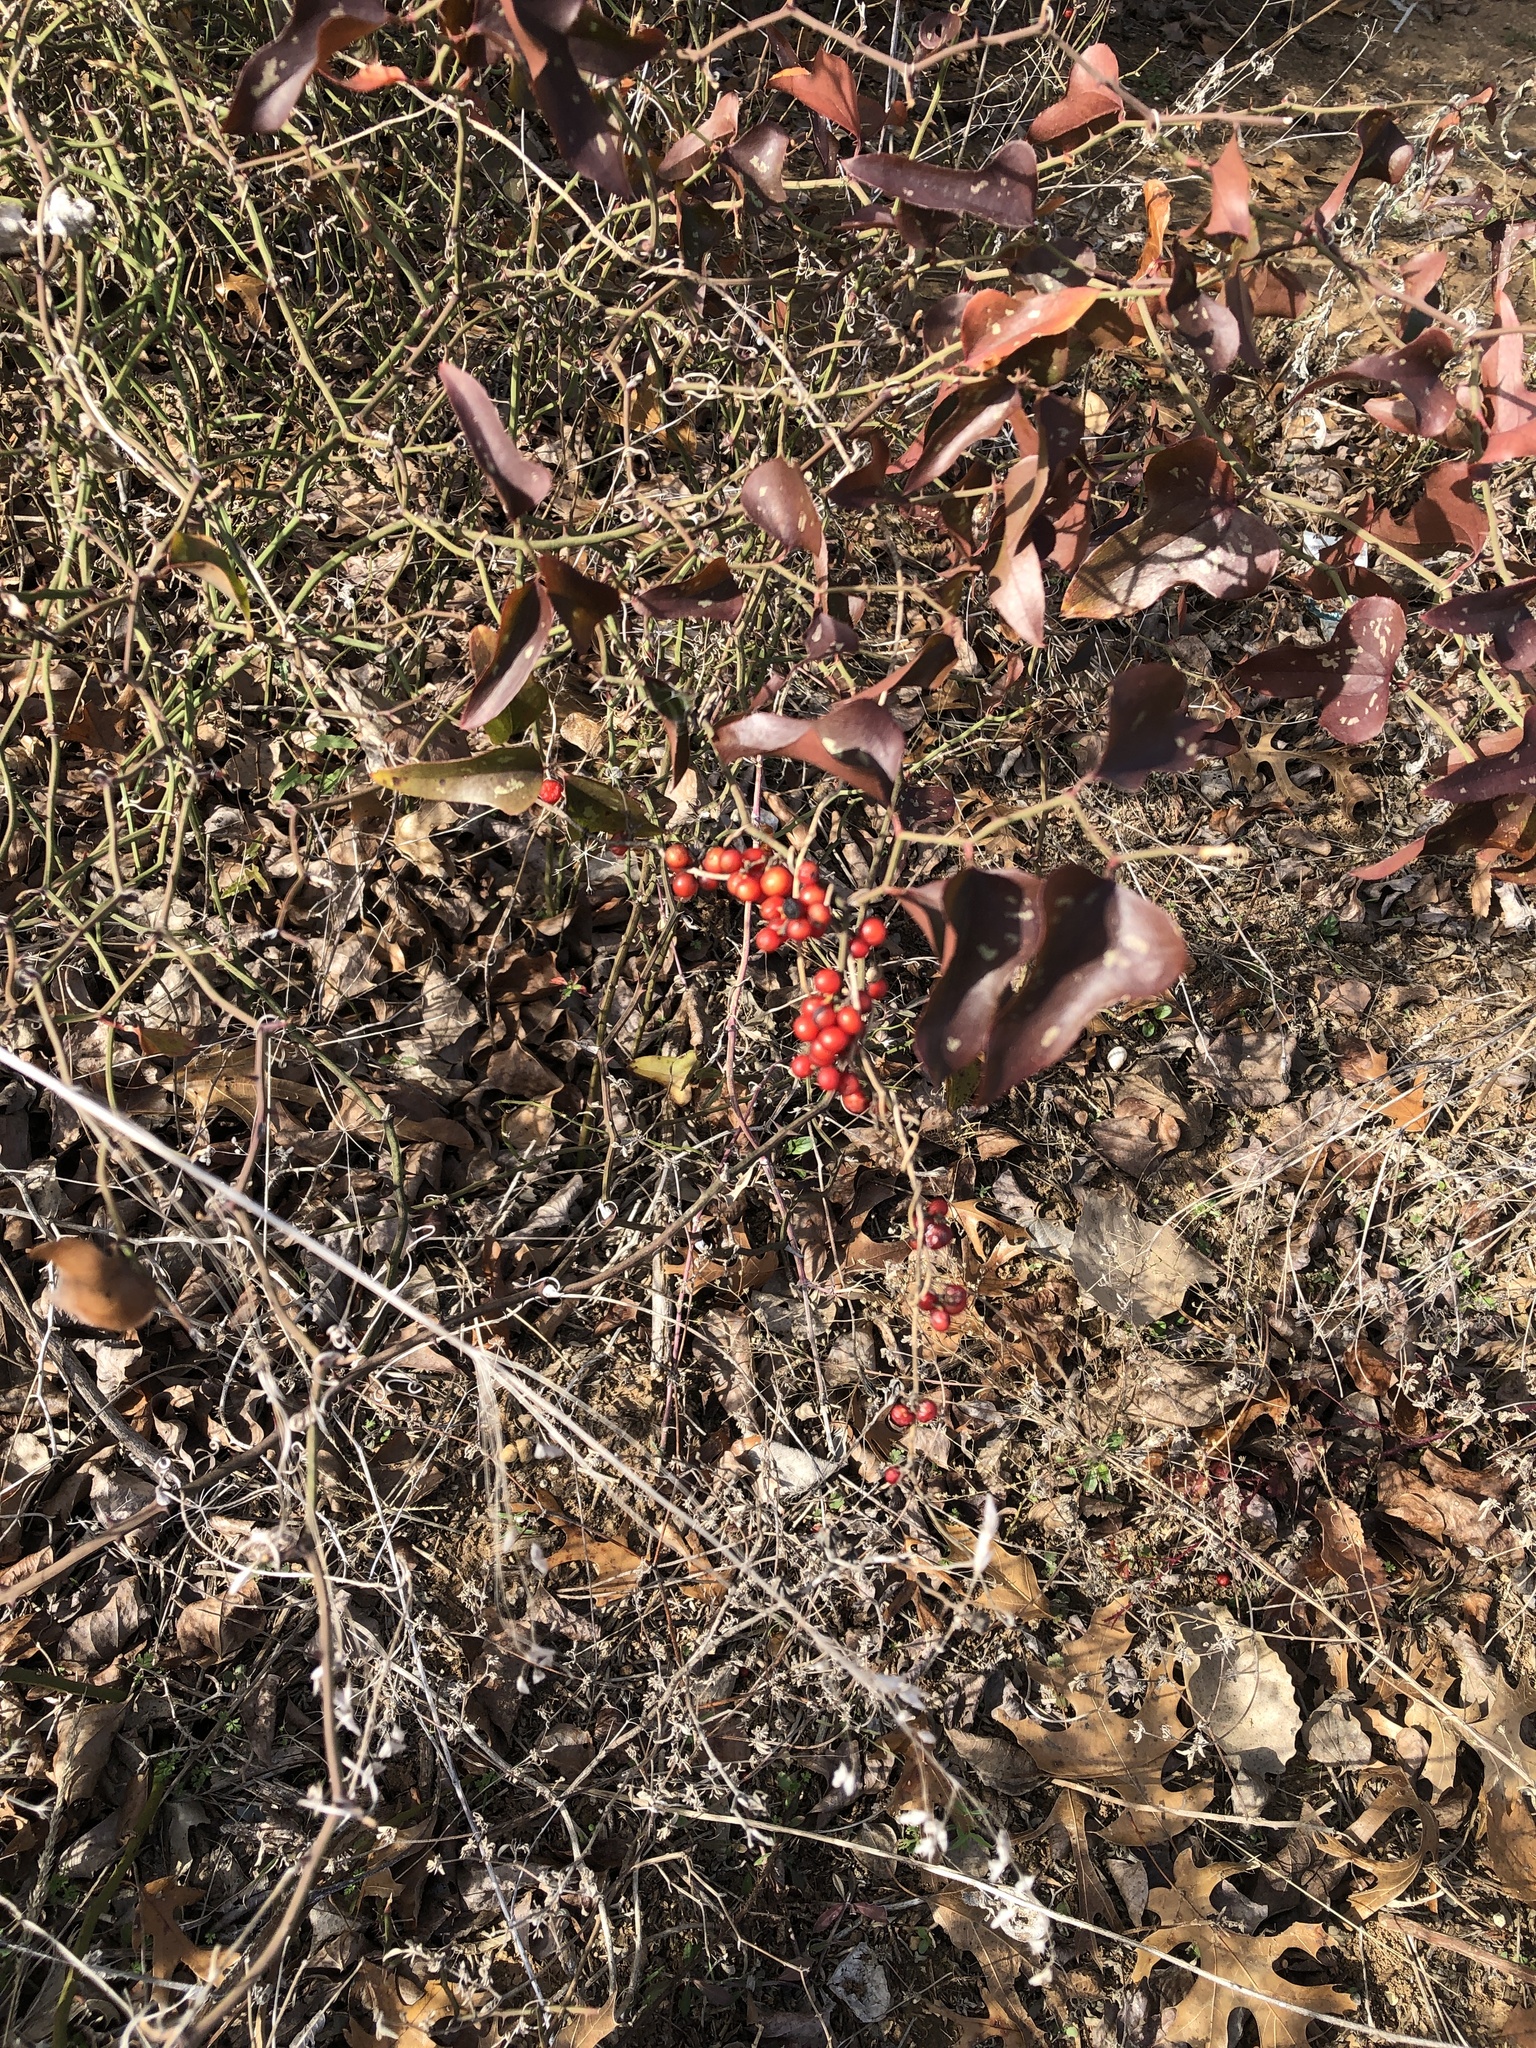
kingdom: Plantae
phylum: Tracheophyta
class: Magnoliopsida
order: Ranunculales
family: Menispermaceae
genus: Cocculus
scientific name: Cocculus carolinus
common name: Carolina moonseed
